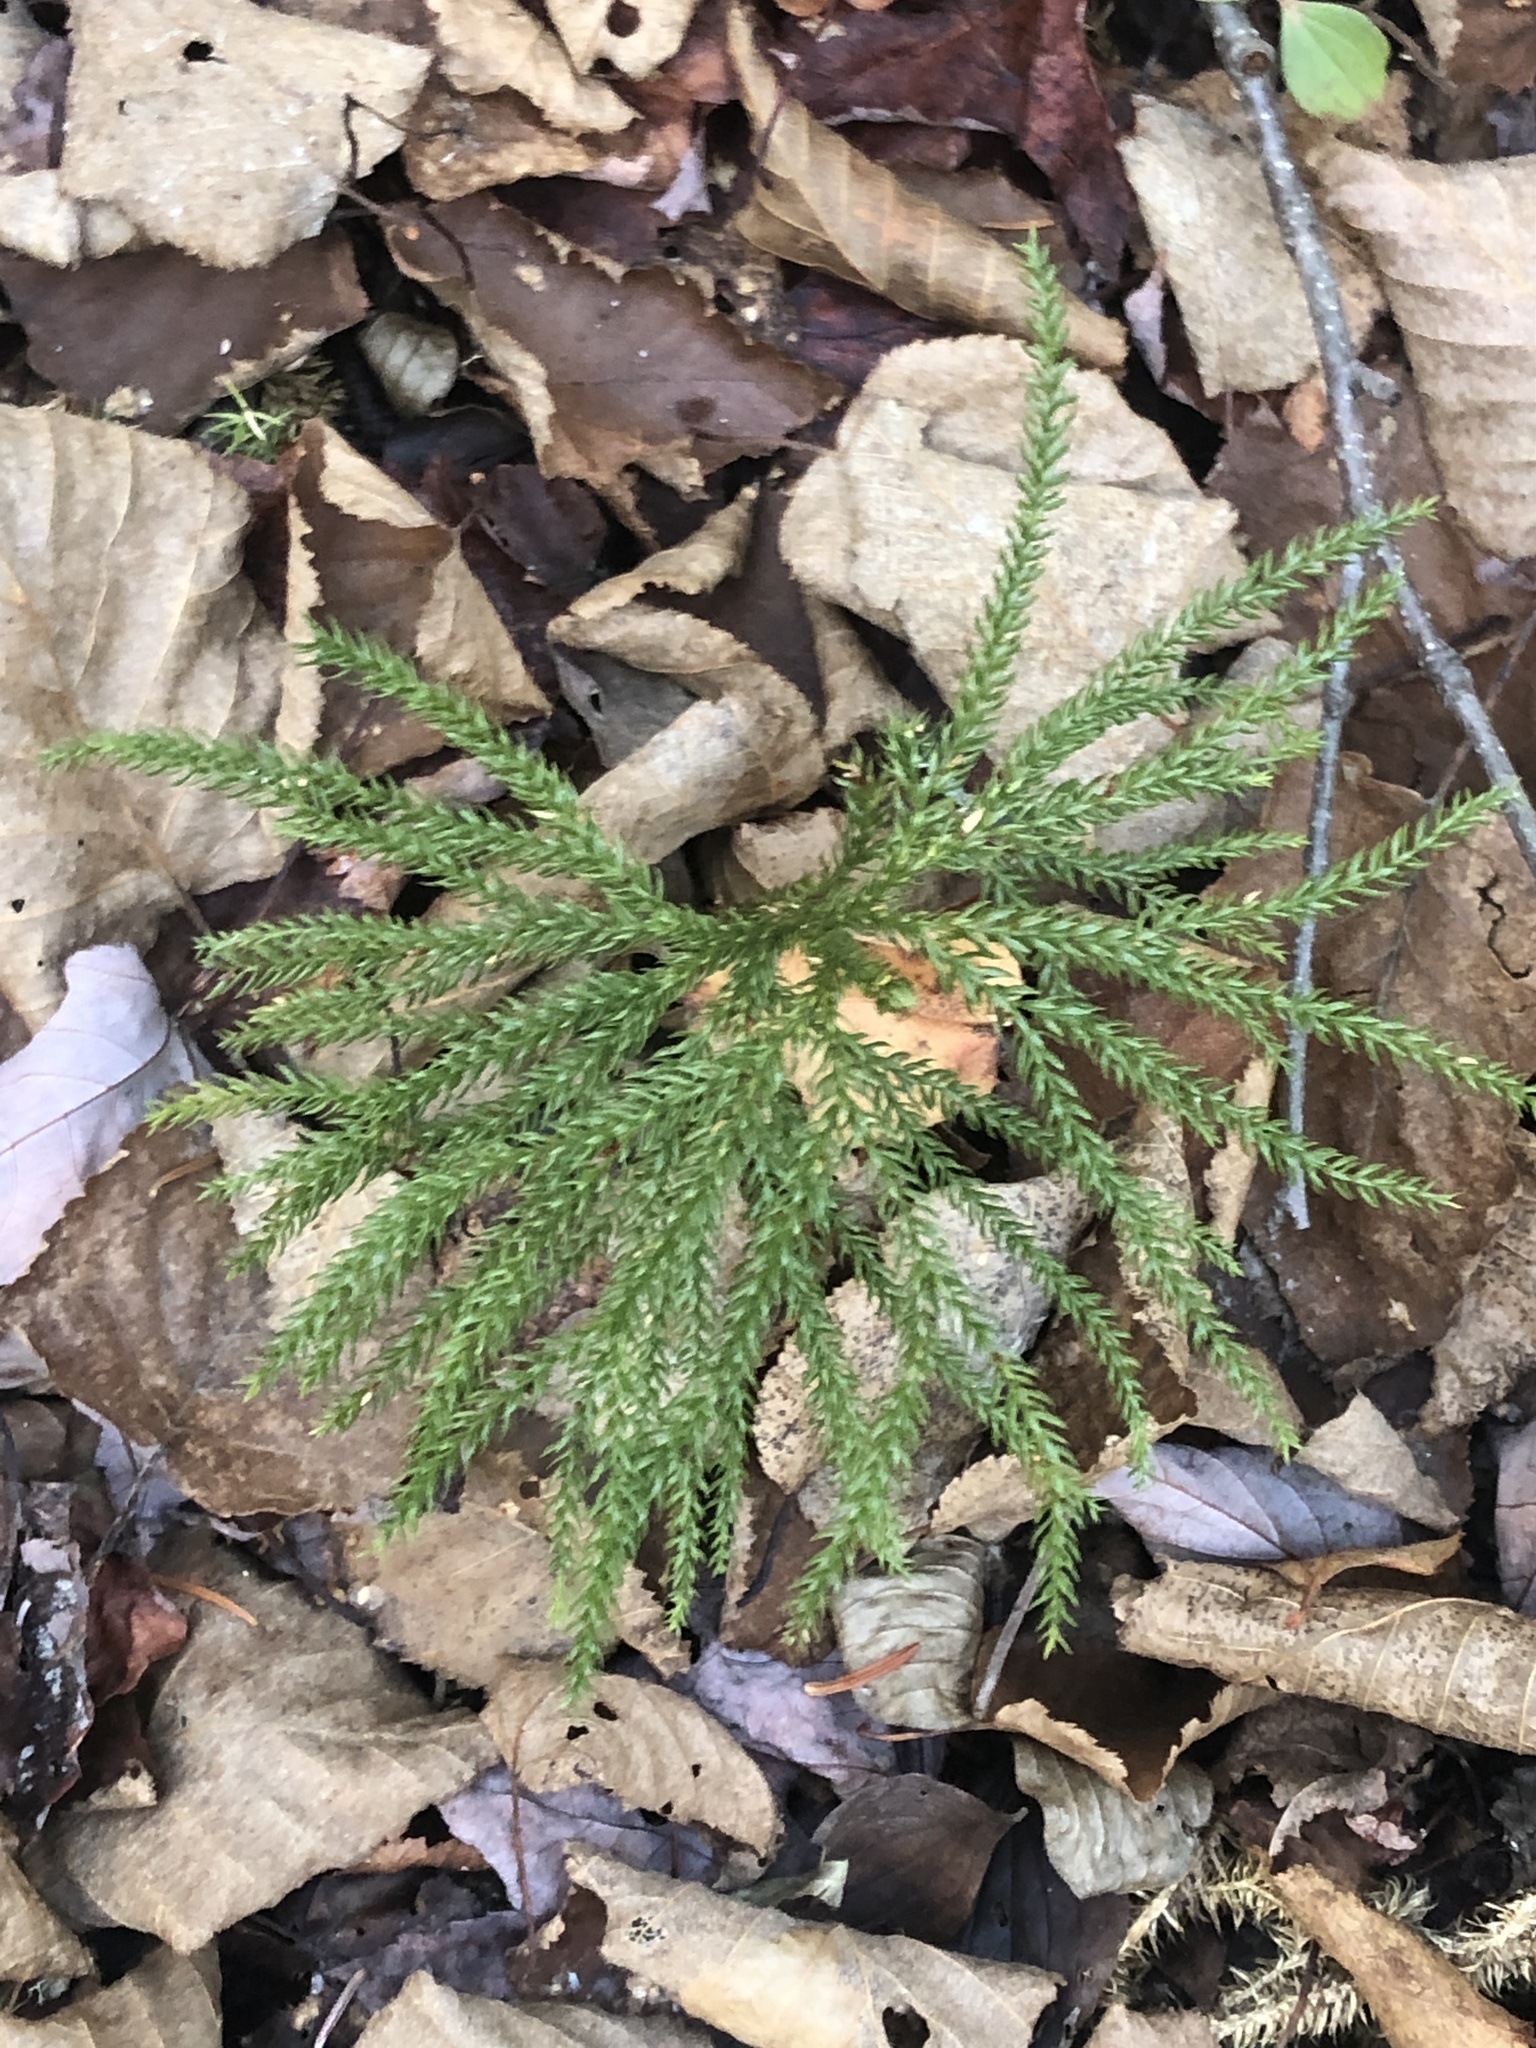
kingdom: Plantae
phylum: Tracheophyta
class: Lycopodiopsida
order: Lycopodiales
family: Lycopodiaceae
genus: Dendrolycopodium
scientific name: Dendrolycopodium dendroideum
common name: Northern tree-clubmoss
